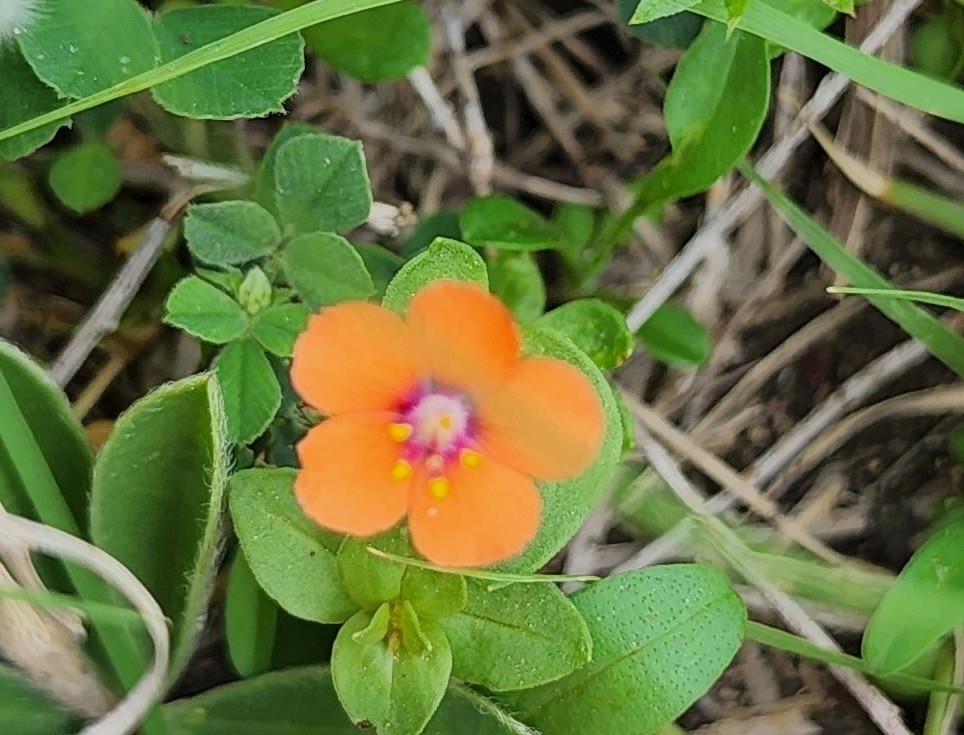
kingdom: Plantae
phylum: Tracheophyta
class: Magnoliopsida
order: Ericales
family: Primulaceae
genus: Lysimachia
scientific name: Lysimachia arvensis
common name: Scarlet pimpernel
